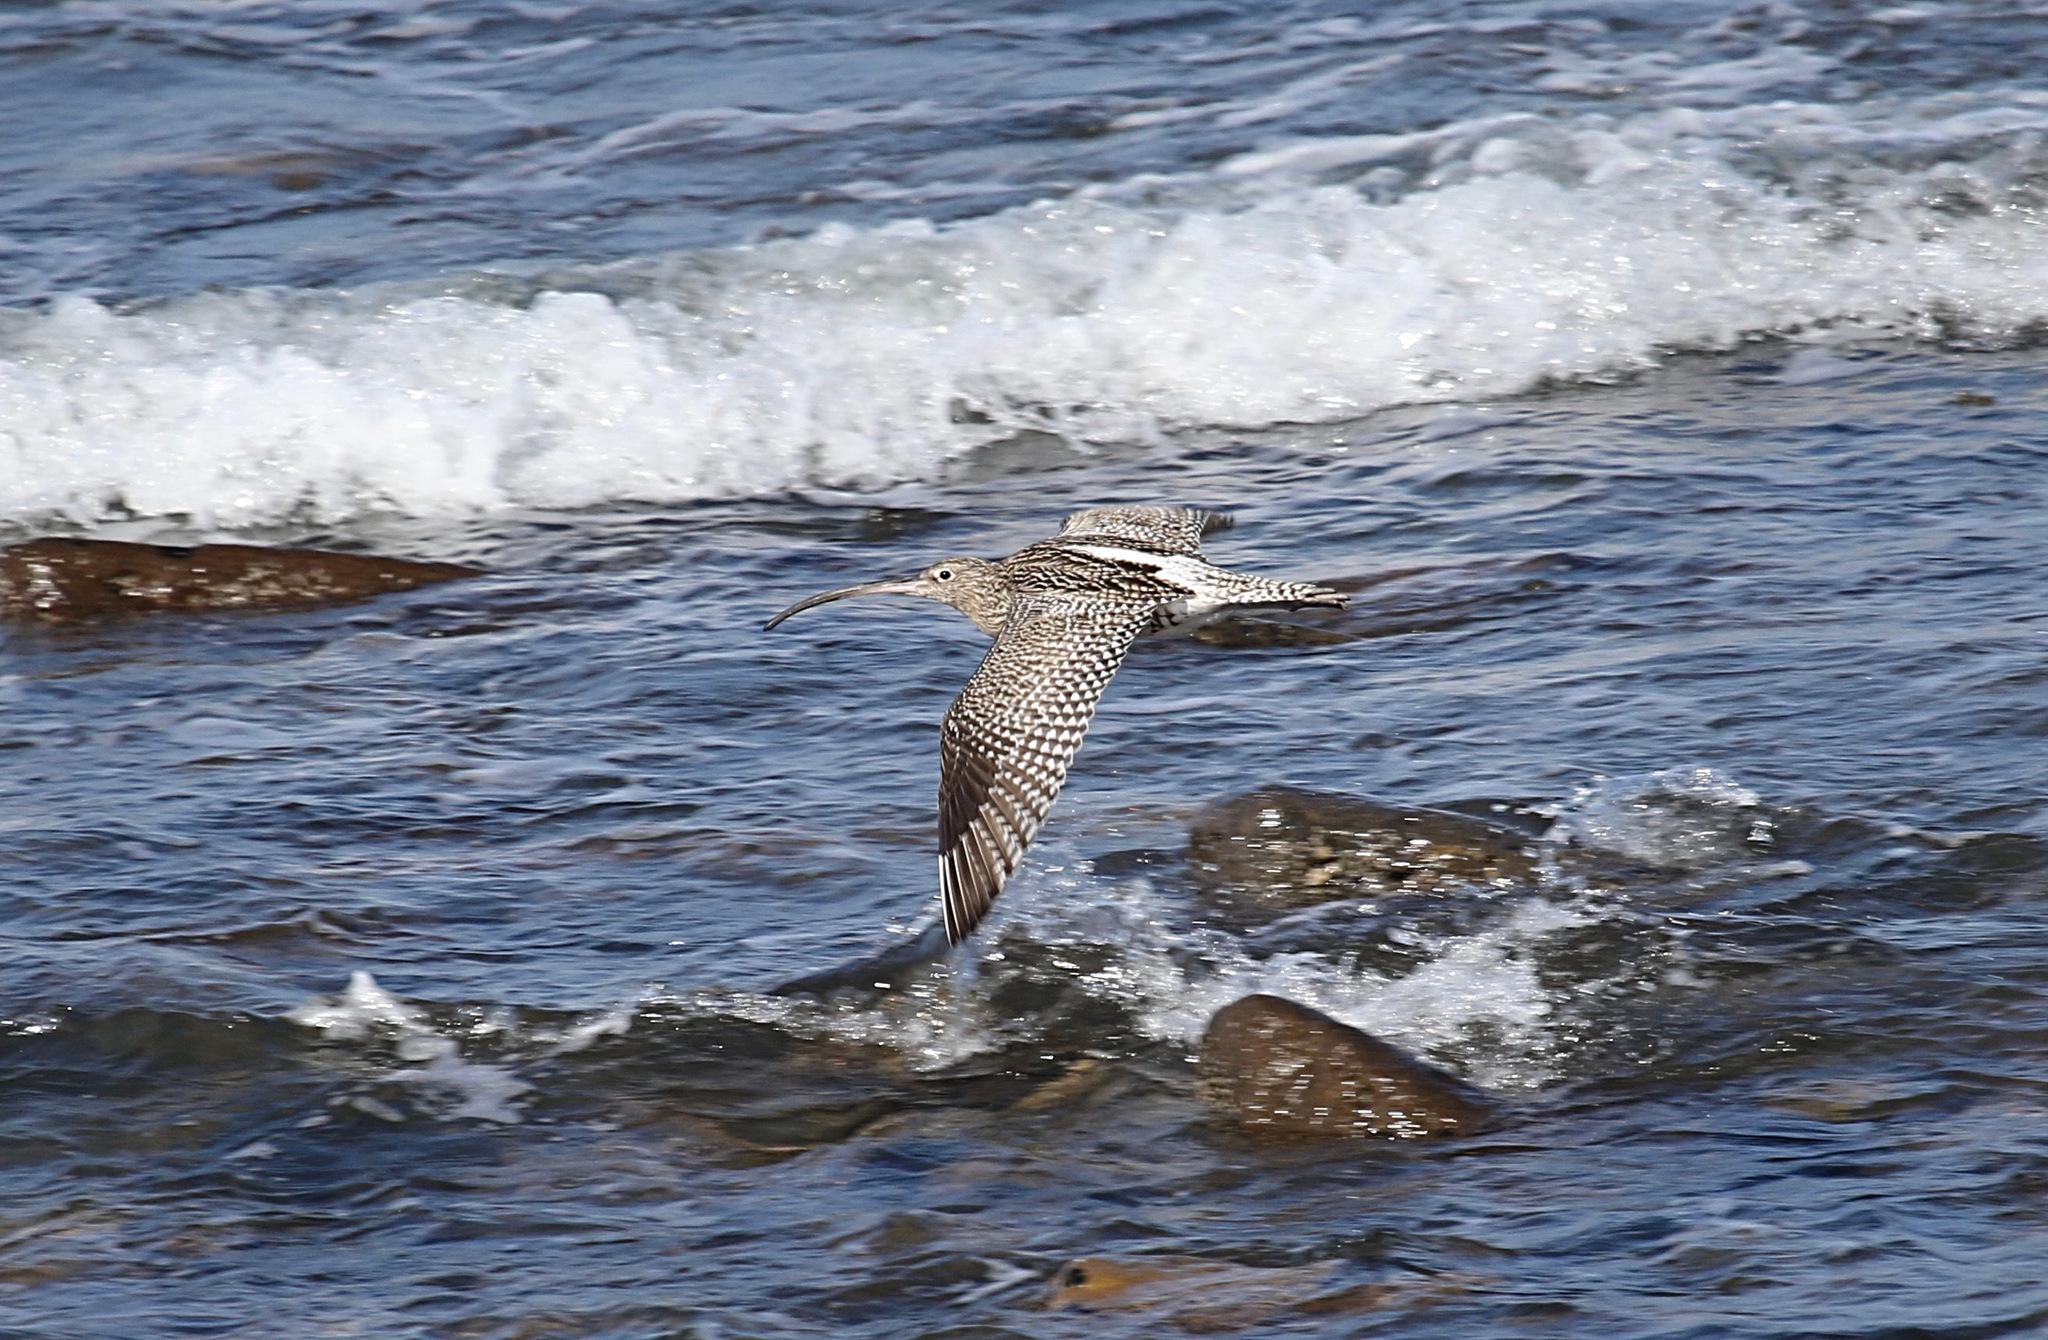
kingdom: Animalia
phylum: Chordata
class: Aves
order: Charadriiformes
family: Scolopacidae
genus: Numenius
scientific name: Numenius arquata
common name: Eurasian curlew
